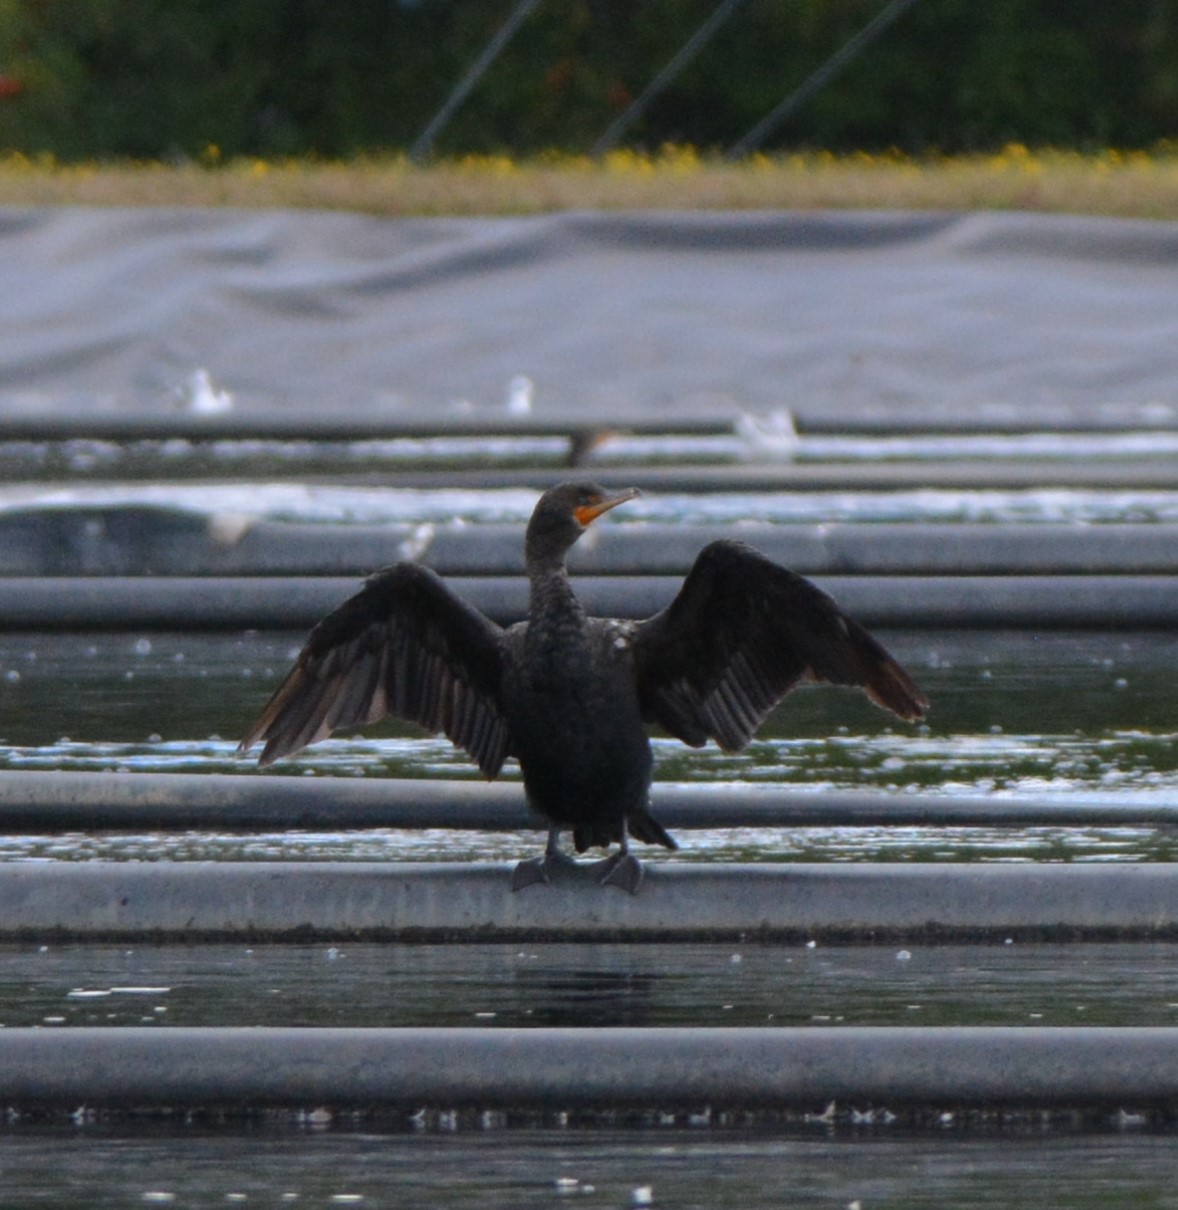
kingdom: Animalia
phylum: Chordata
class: Aves
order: Suliformes
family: Phalacrocoracidae
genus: Phalacrocorax
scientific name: Phalacrocorax auritus
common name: Double-crested cormorant
